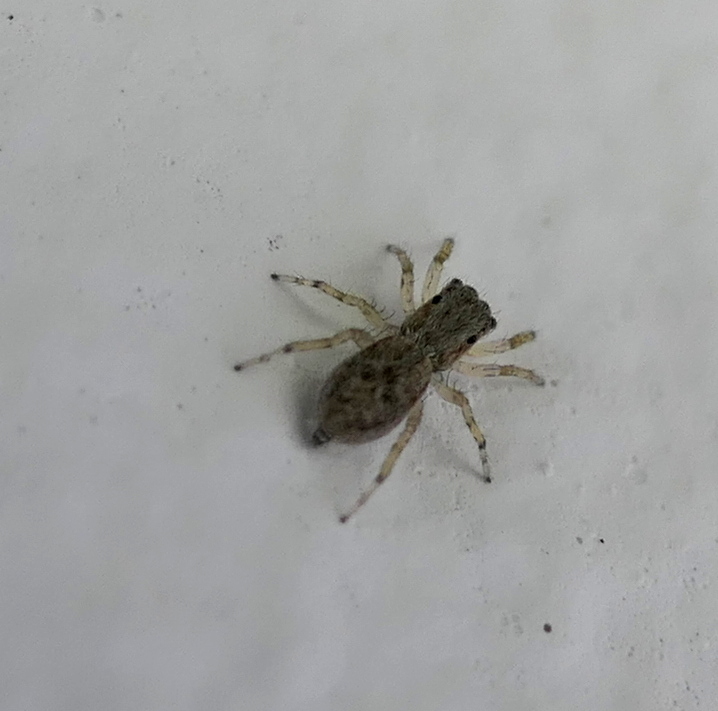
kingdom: Animalia
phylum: Arthropoda
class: Arachnida
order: Araneae
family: Salticidae
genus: Menemerus
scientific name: Menemerus bivittatus
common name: Gray wall jumper
